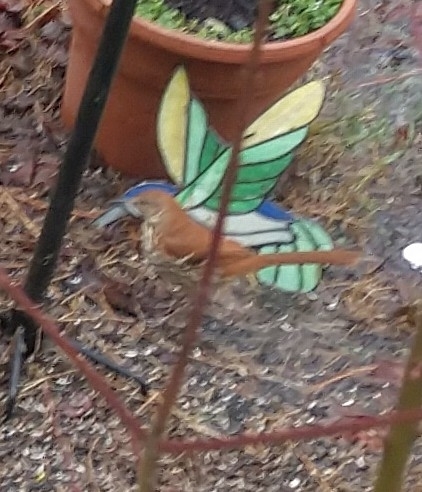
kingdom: Animalia
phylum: Chordata
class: Aves
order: Passeriformes
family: Mimidae
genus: Toxostoma
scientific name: Toxostoma rufum
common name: Brown thrasher
